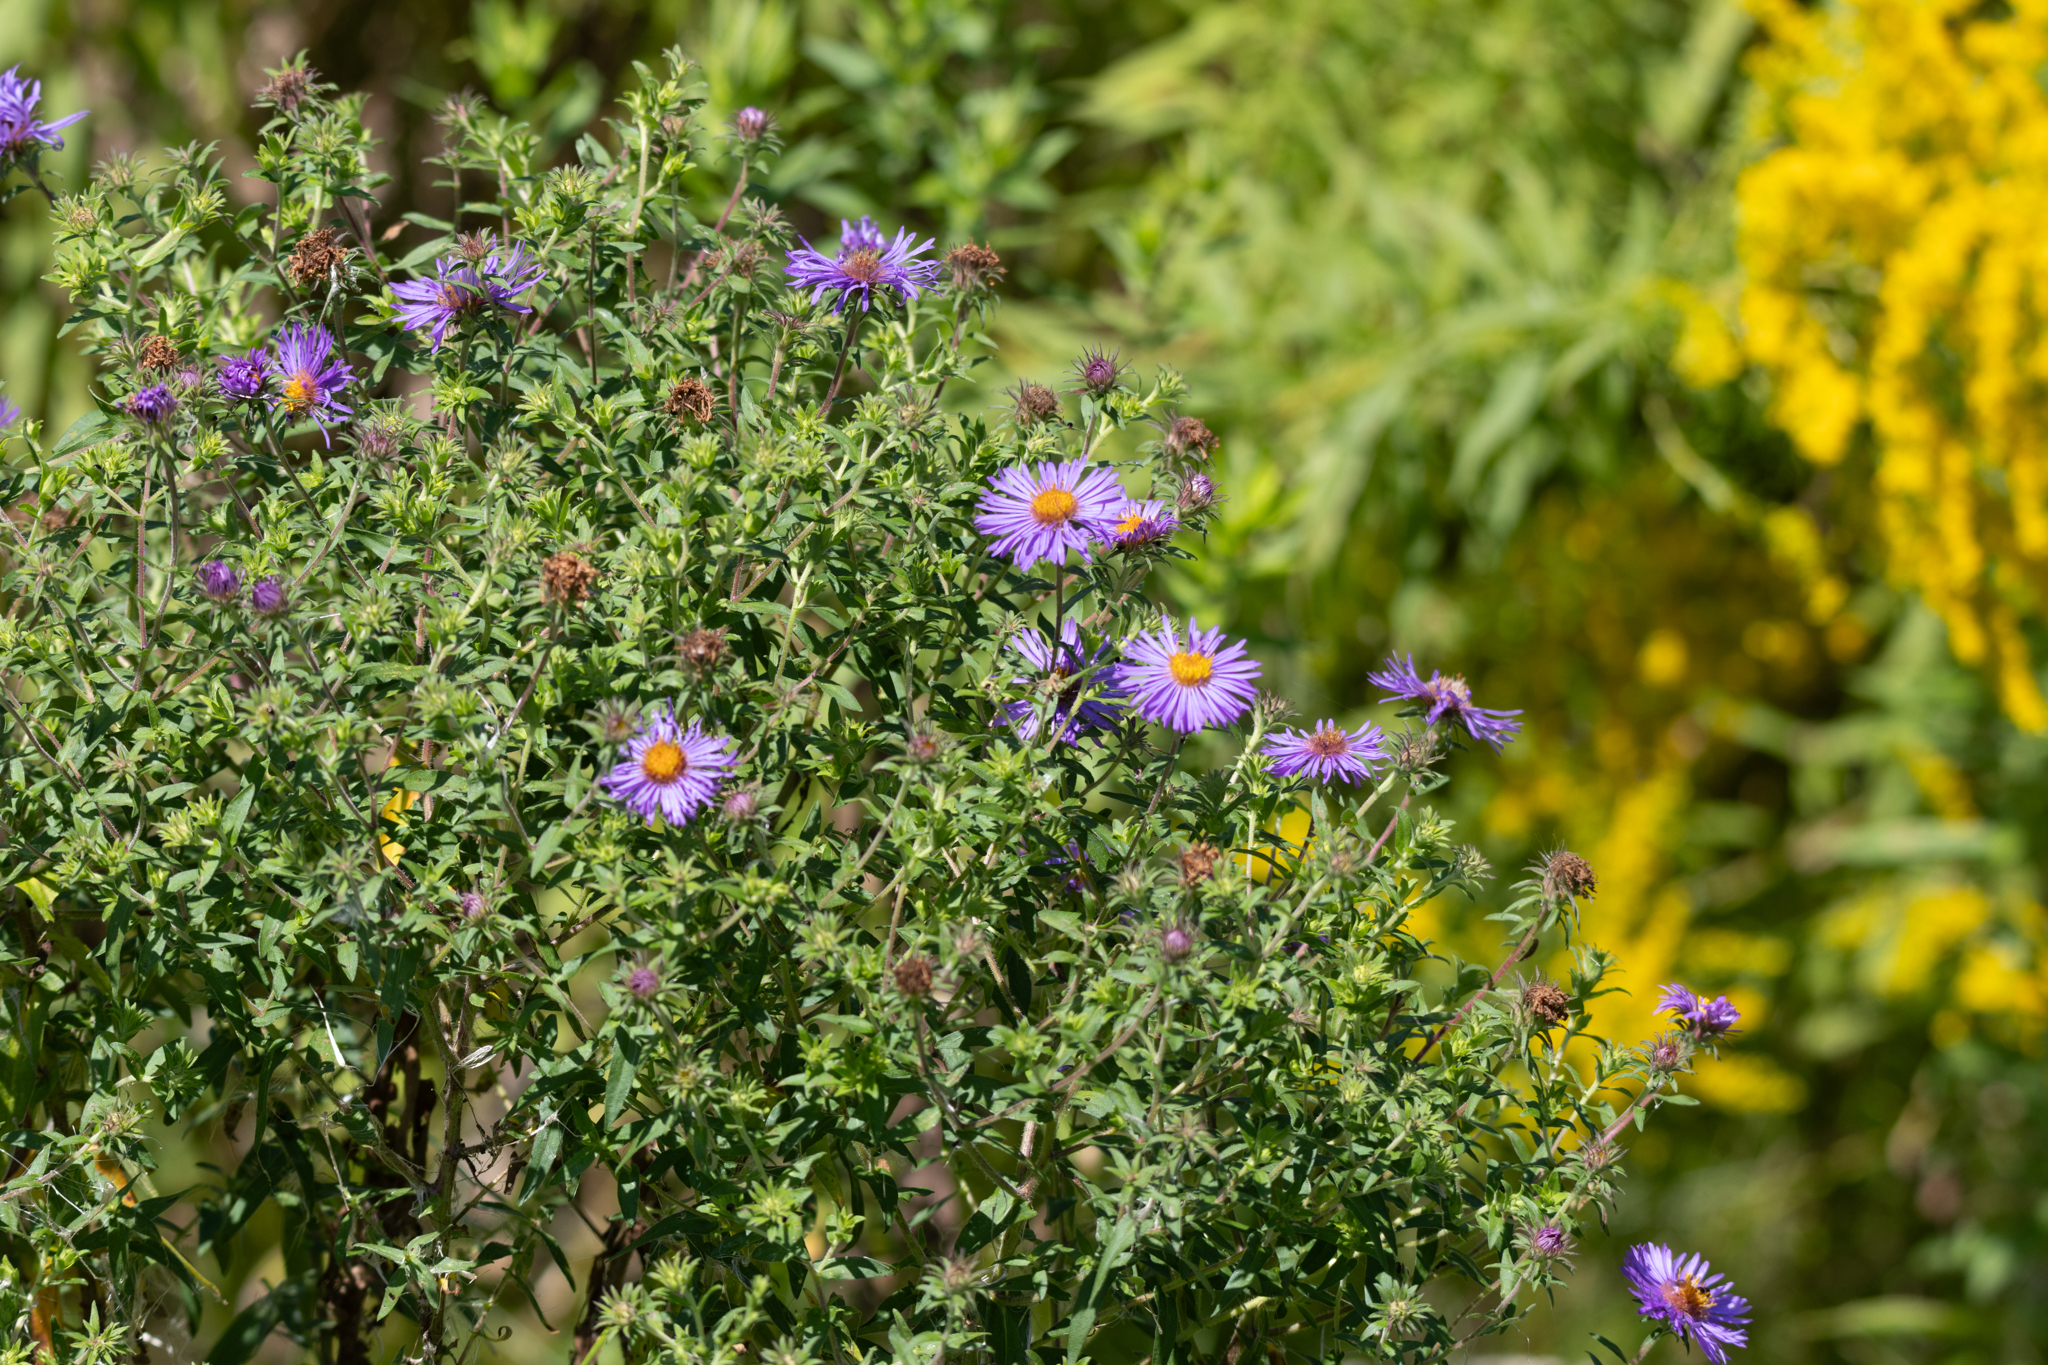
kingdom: Plantae
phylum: Tracheophyta
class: Magnoliopsida
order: Asterales
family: Asteraceae
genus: Symphyotrichum
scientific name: Symphyotrichum novae-angliae
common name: Michaelmas daisy
